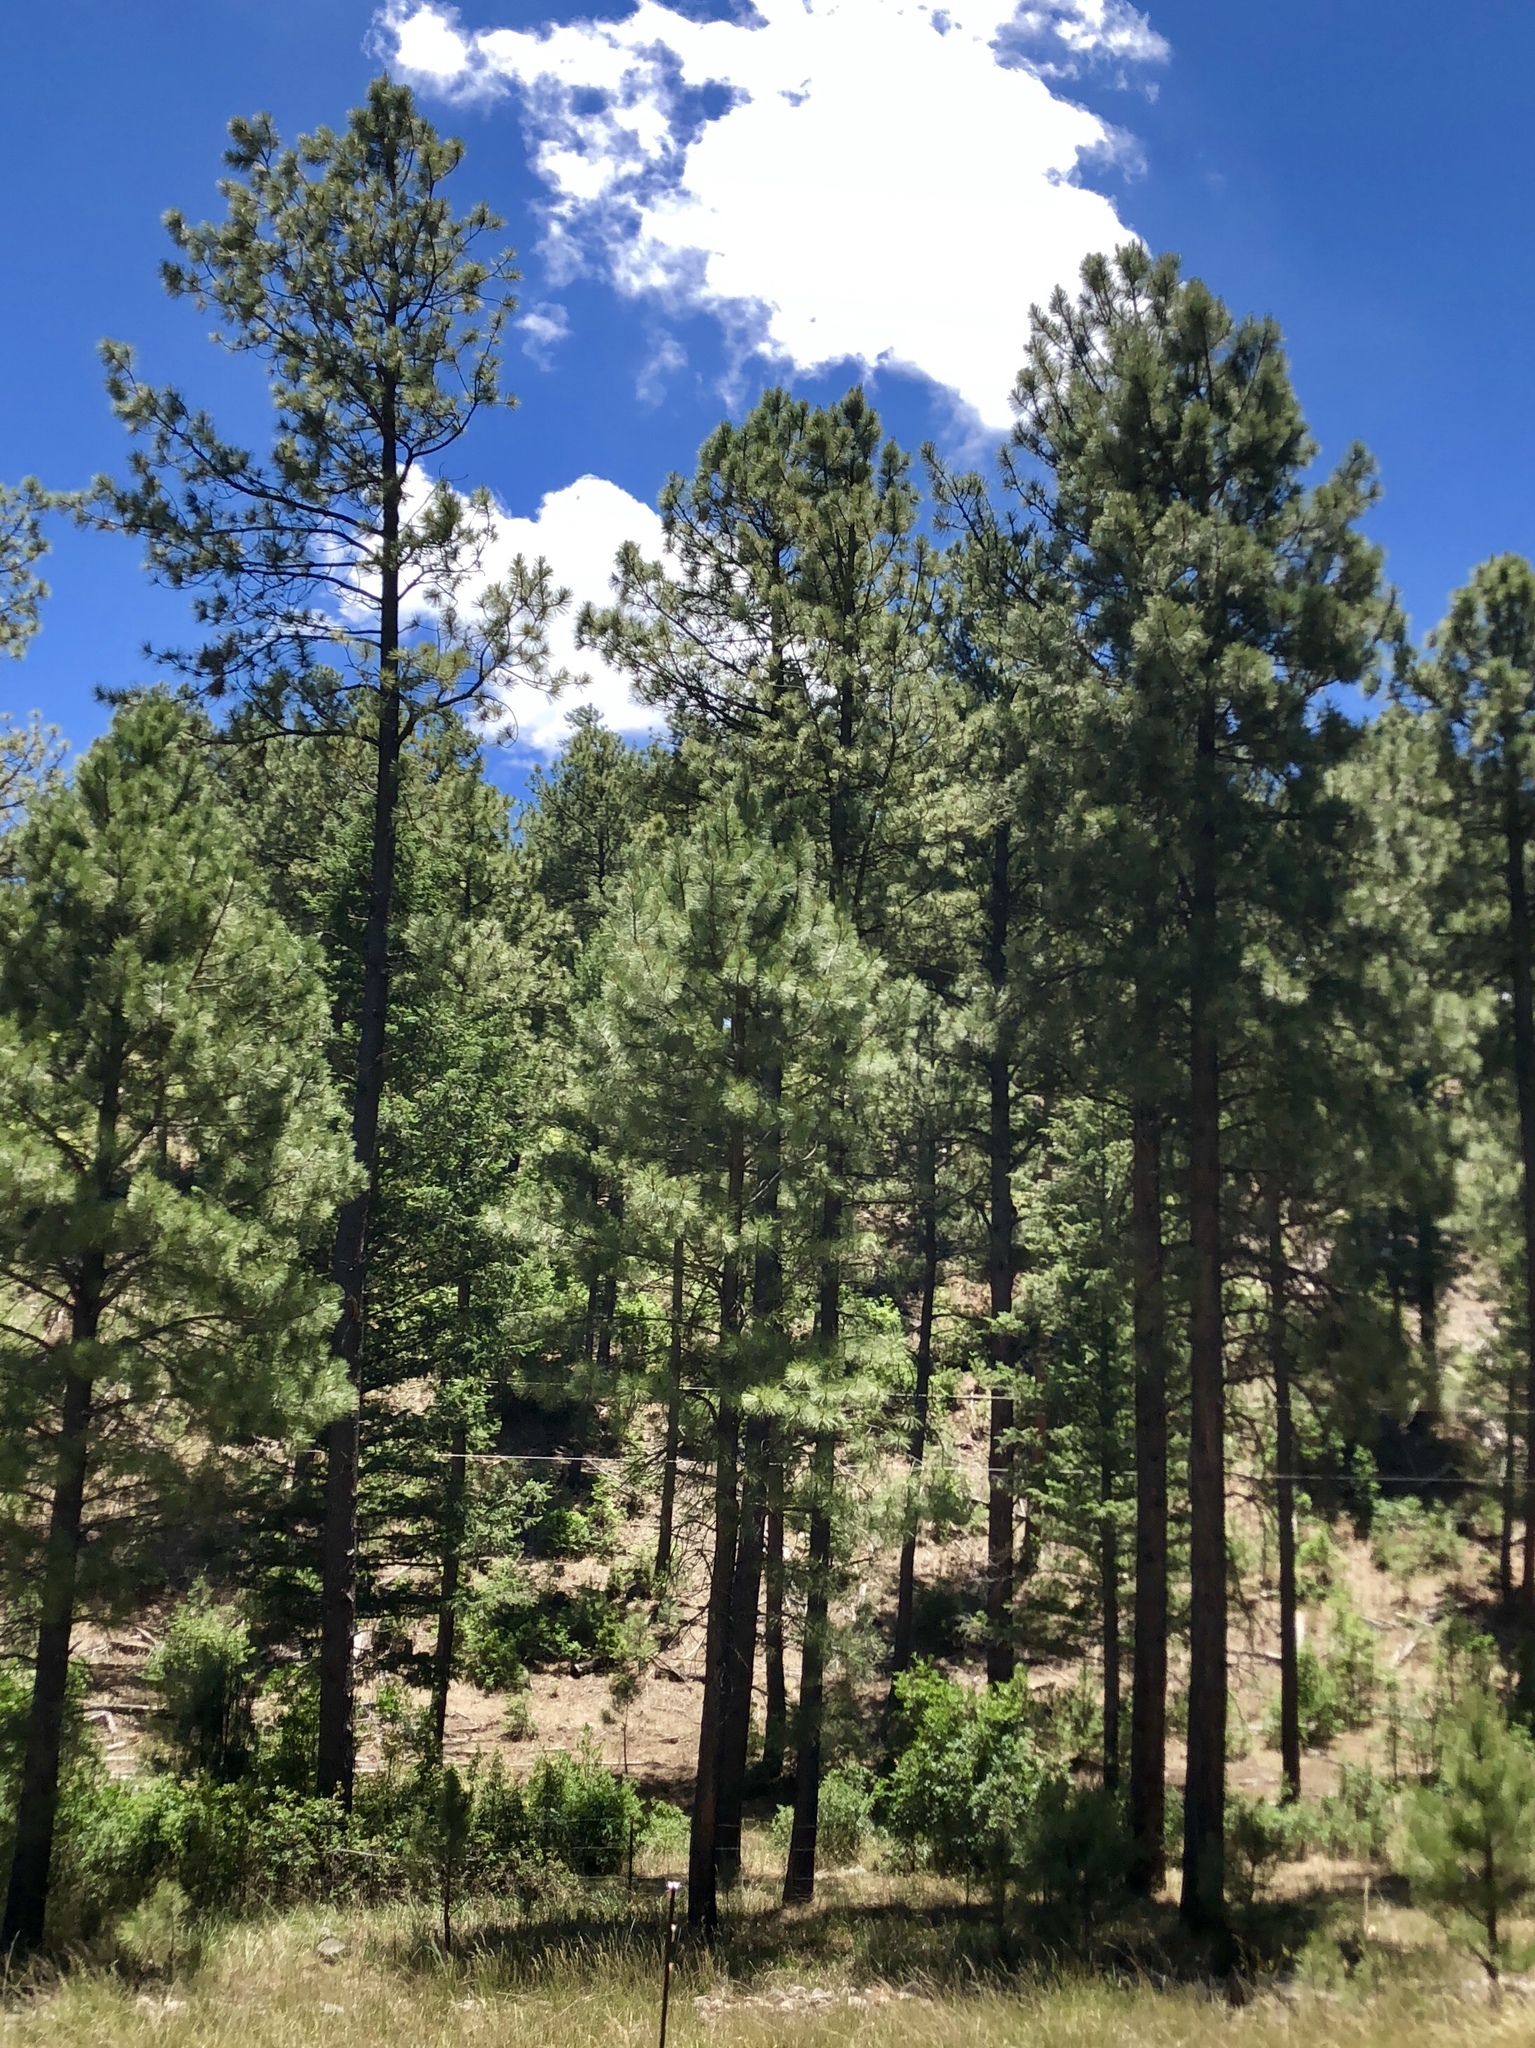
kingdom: Plantae
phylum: Tracheophyta
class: Pinopsida
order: Pinales
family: Pinaceae
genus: Pinus
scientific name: Pinus ponderosa
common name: Western yellow-pine
